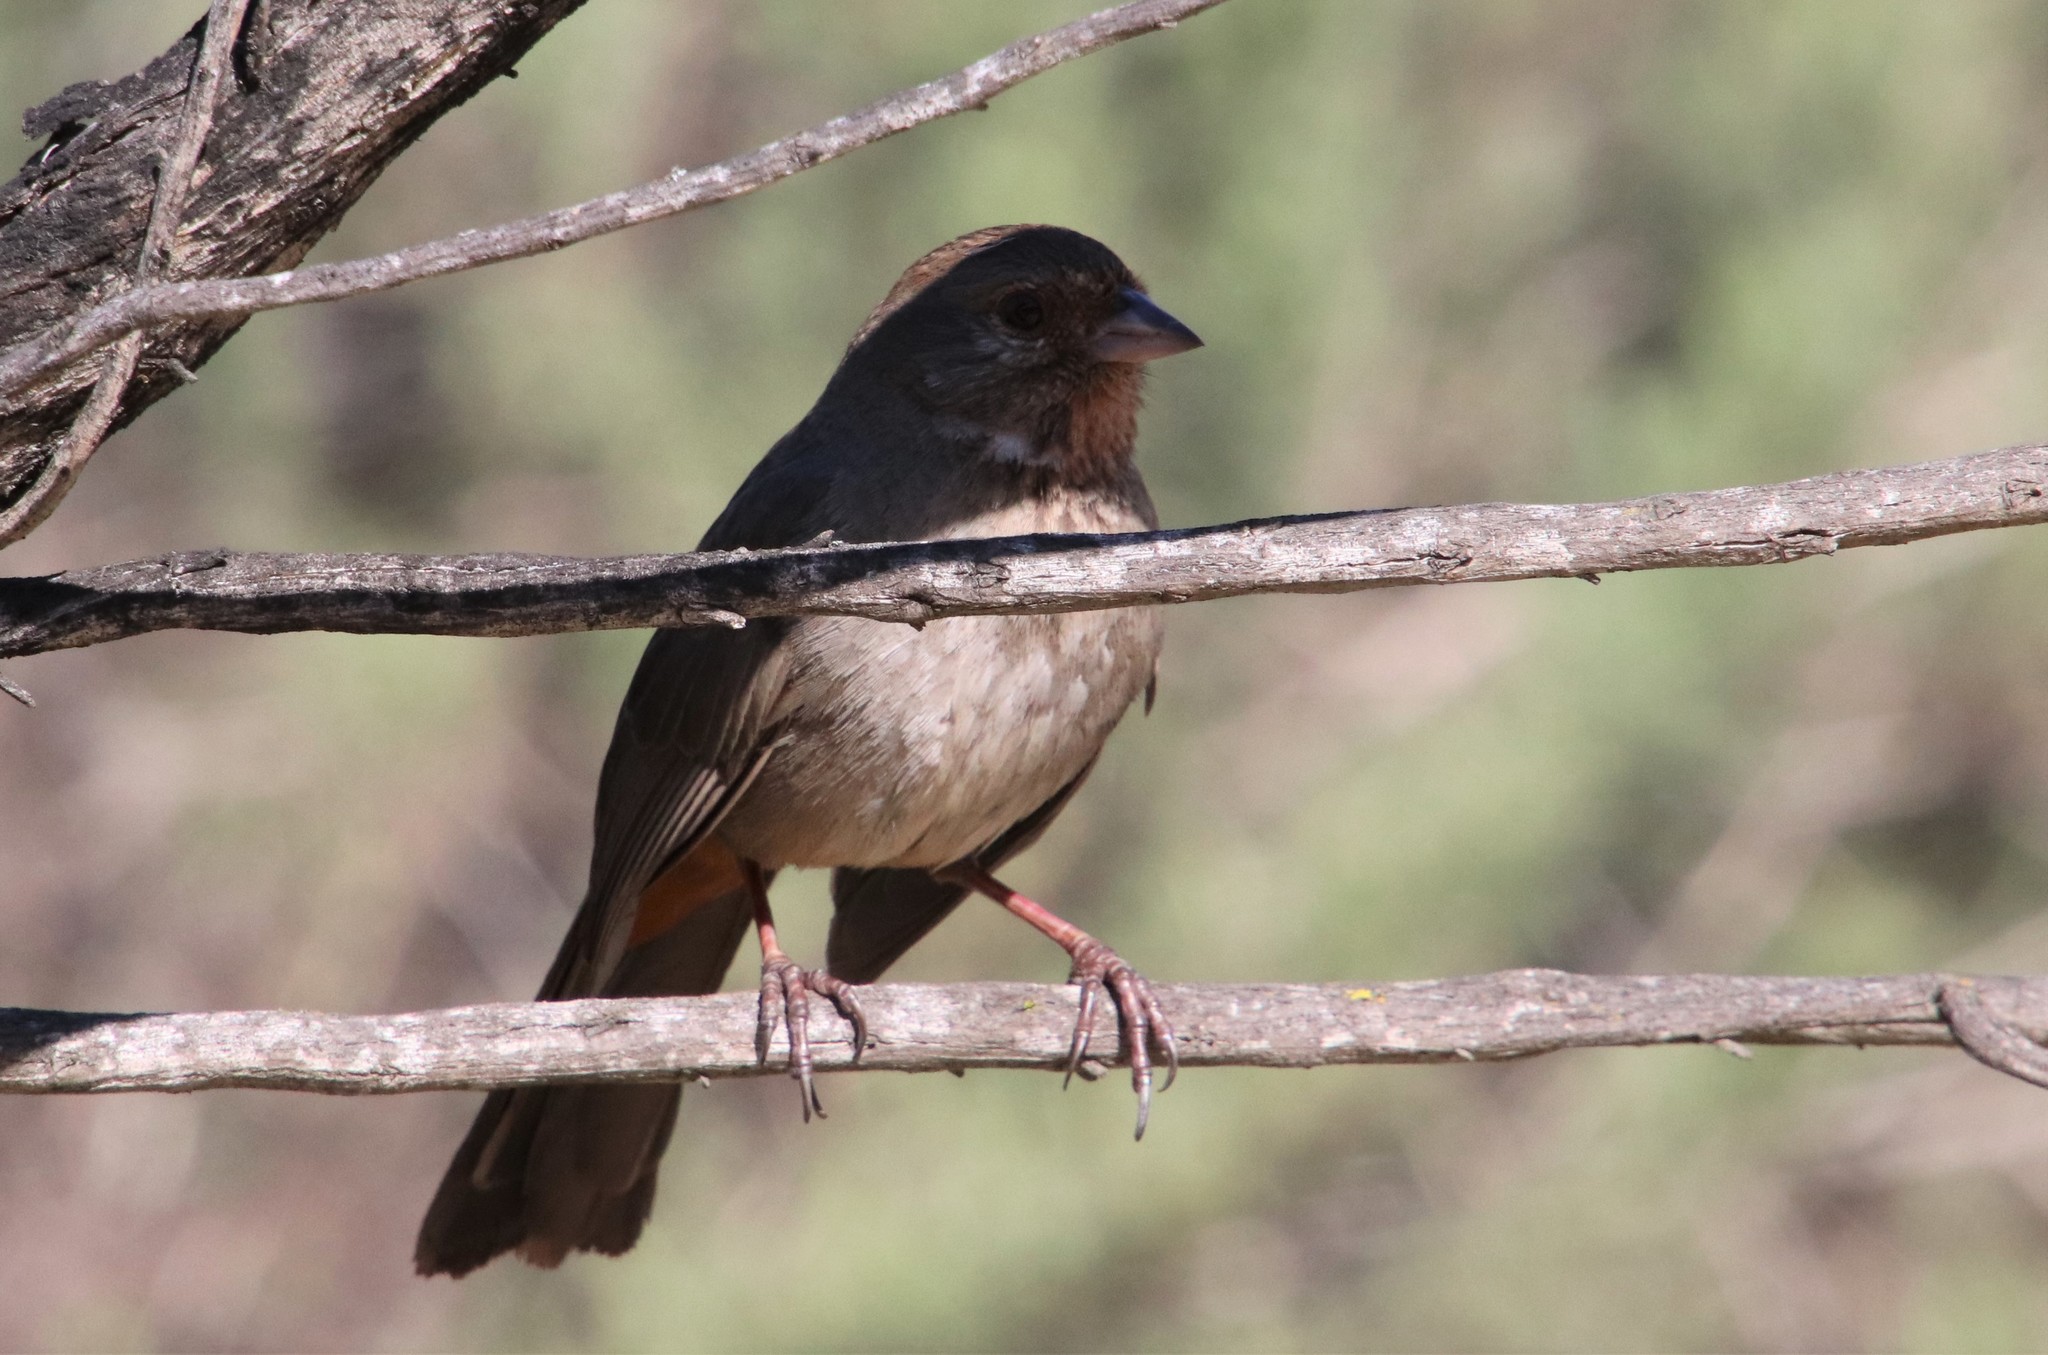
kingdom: Animalia
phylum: Chordata
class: Aves
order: Passeriformes
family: Passerellidae
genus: Melozone
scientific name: Melozone crissalis
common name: California towhee
